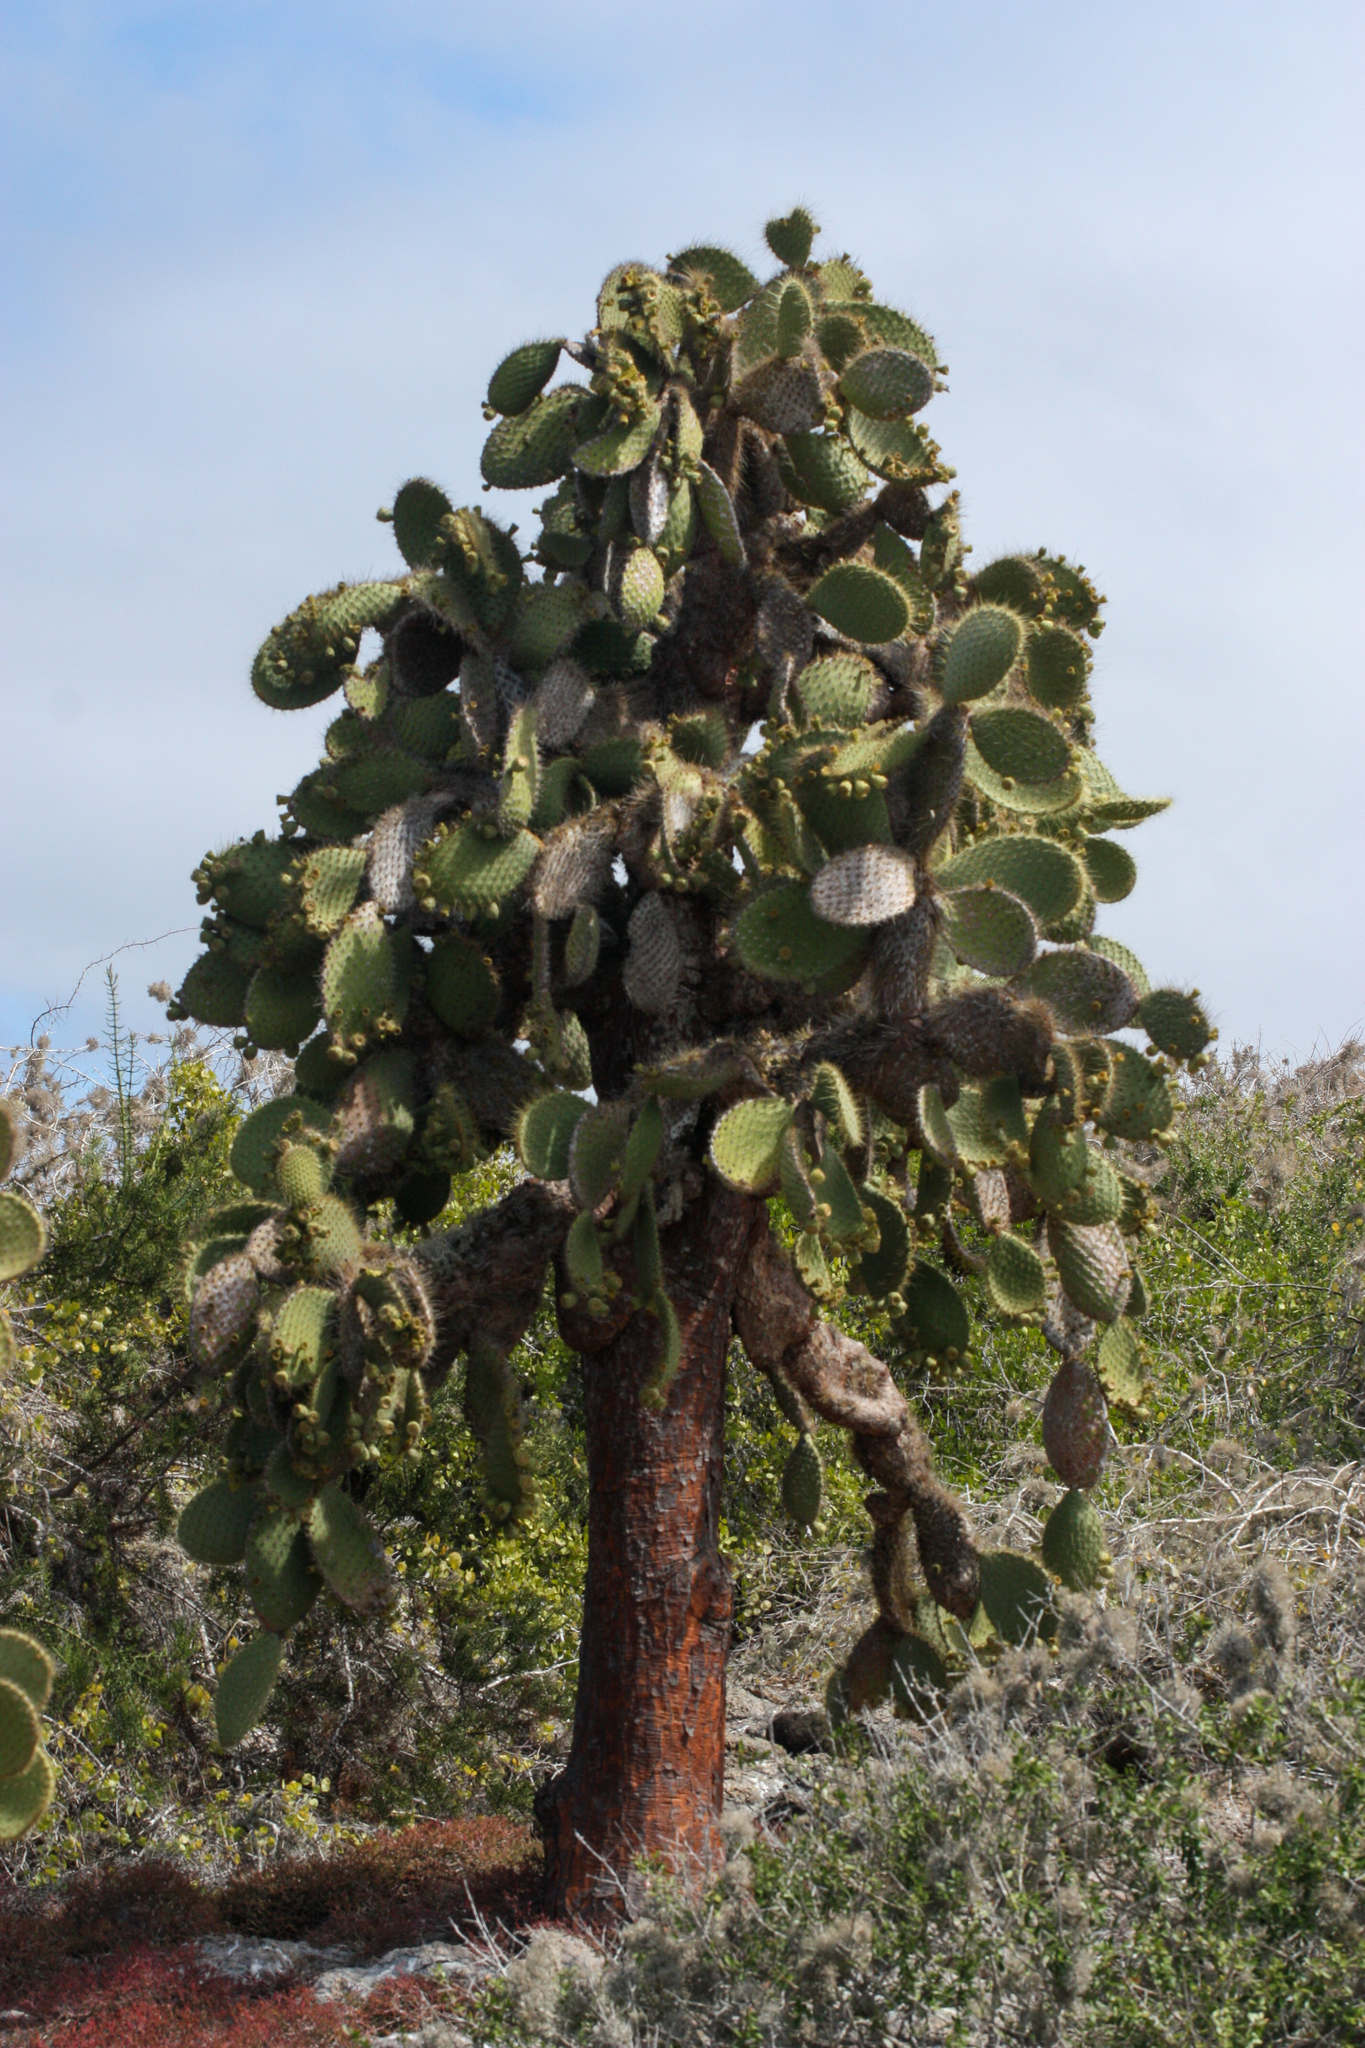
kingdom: Plantae
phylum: Tracheophyta
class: Magnoliopsida
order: Caryophyllales
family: Cactaceae
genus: Opuntia
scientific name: Opuntia galapageia
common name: Galápagos prickly pear
